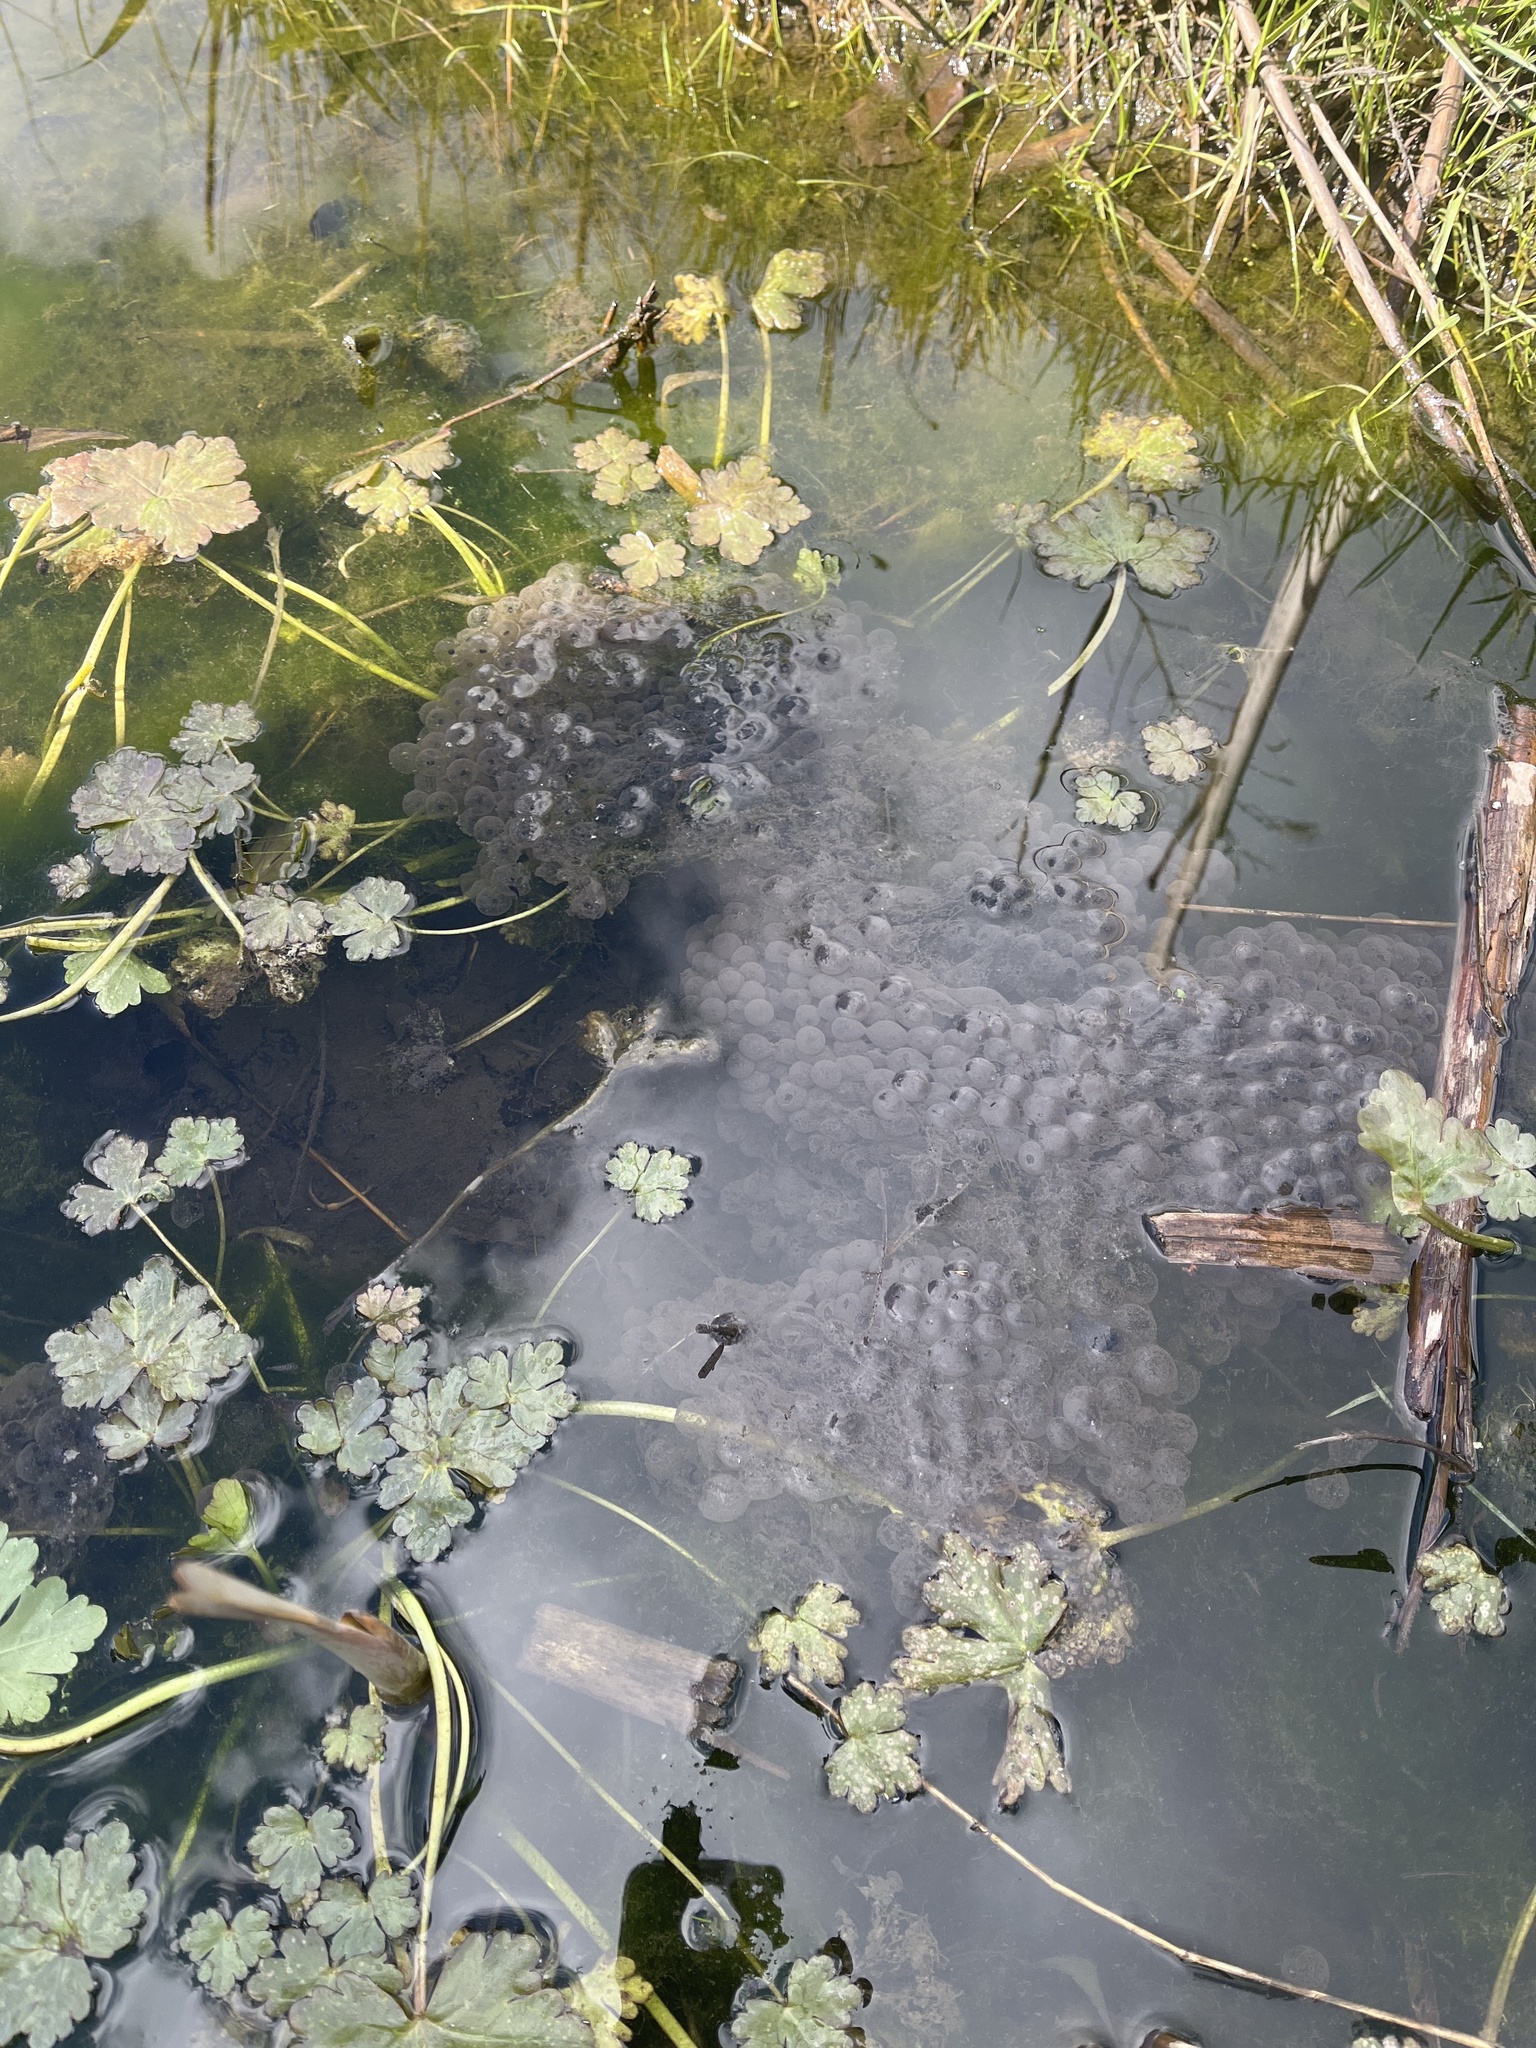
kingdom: Animalia
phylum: Chordata
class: Amphibia
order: Anura
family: Ranidae
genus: Rana
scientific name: Rana temporaria
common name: Common frog
